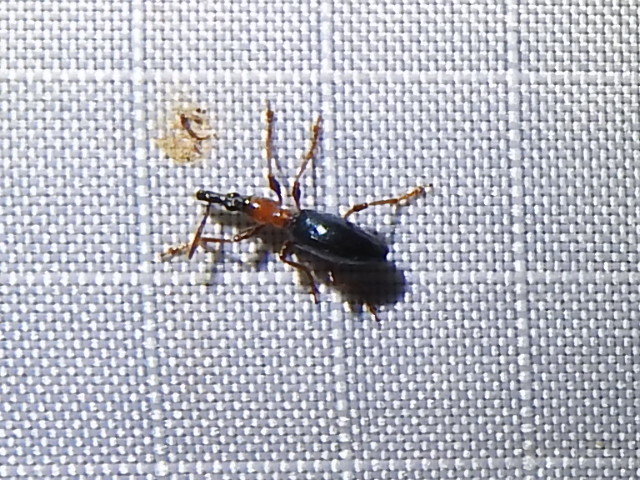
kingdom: Animalia
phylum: Arthropoda
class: Insecta
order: Coleoptera
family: Brentidae
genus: Cylas
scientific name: Cylas formicarius
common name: Sweetpotato weevil
